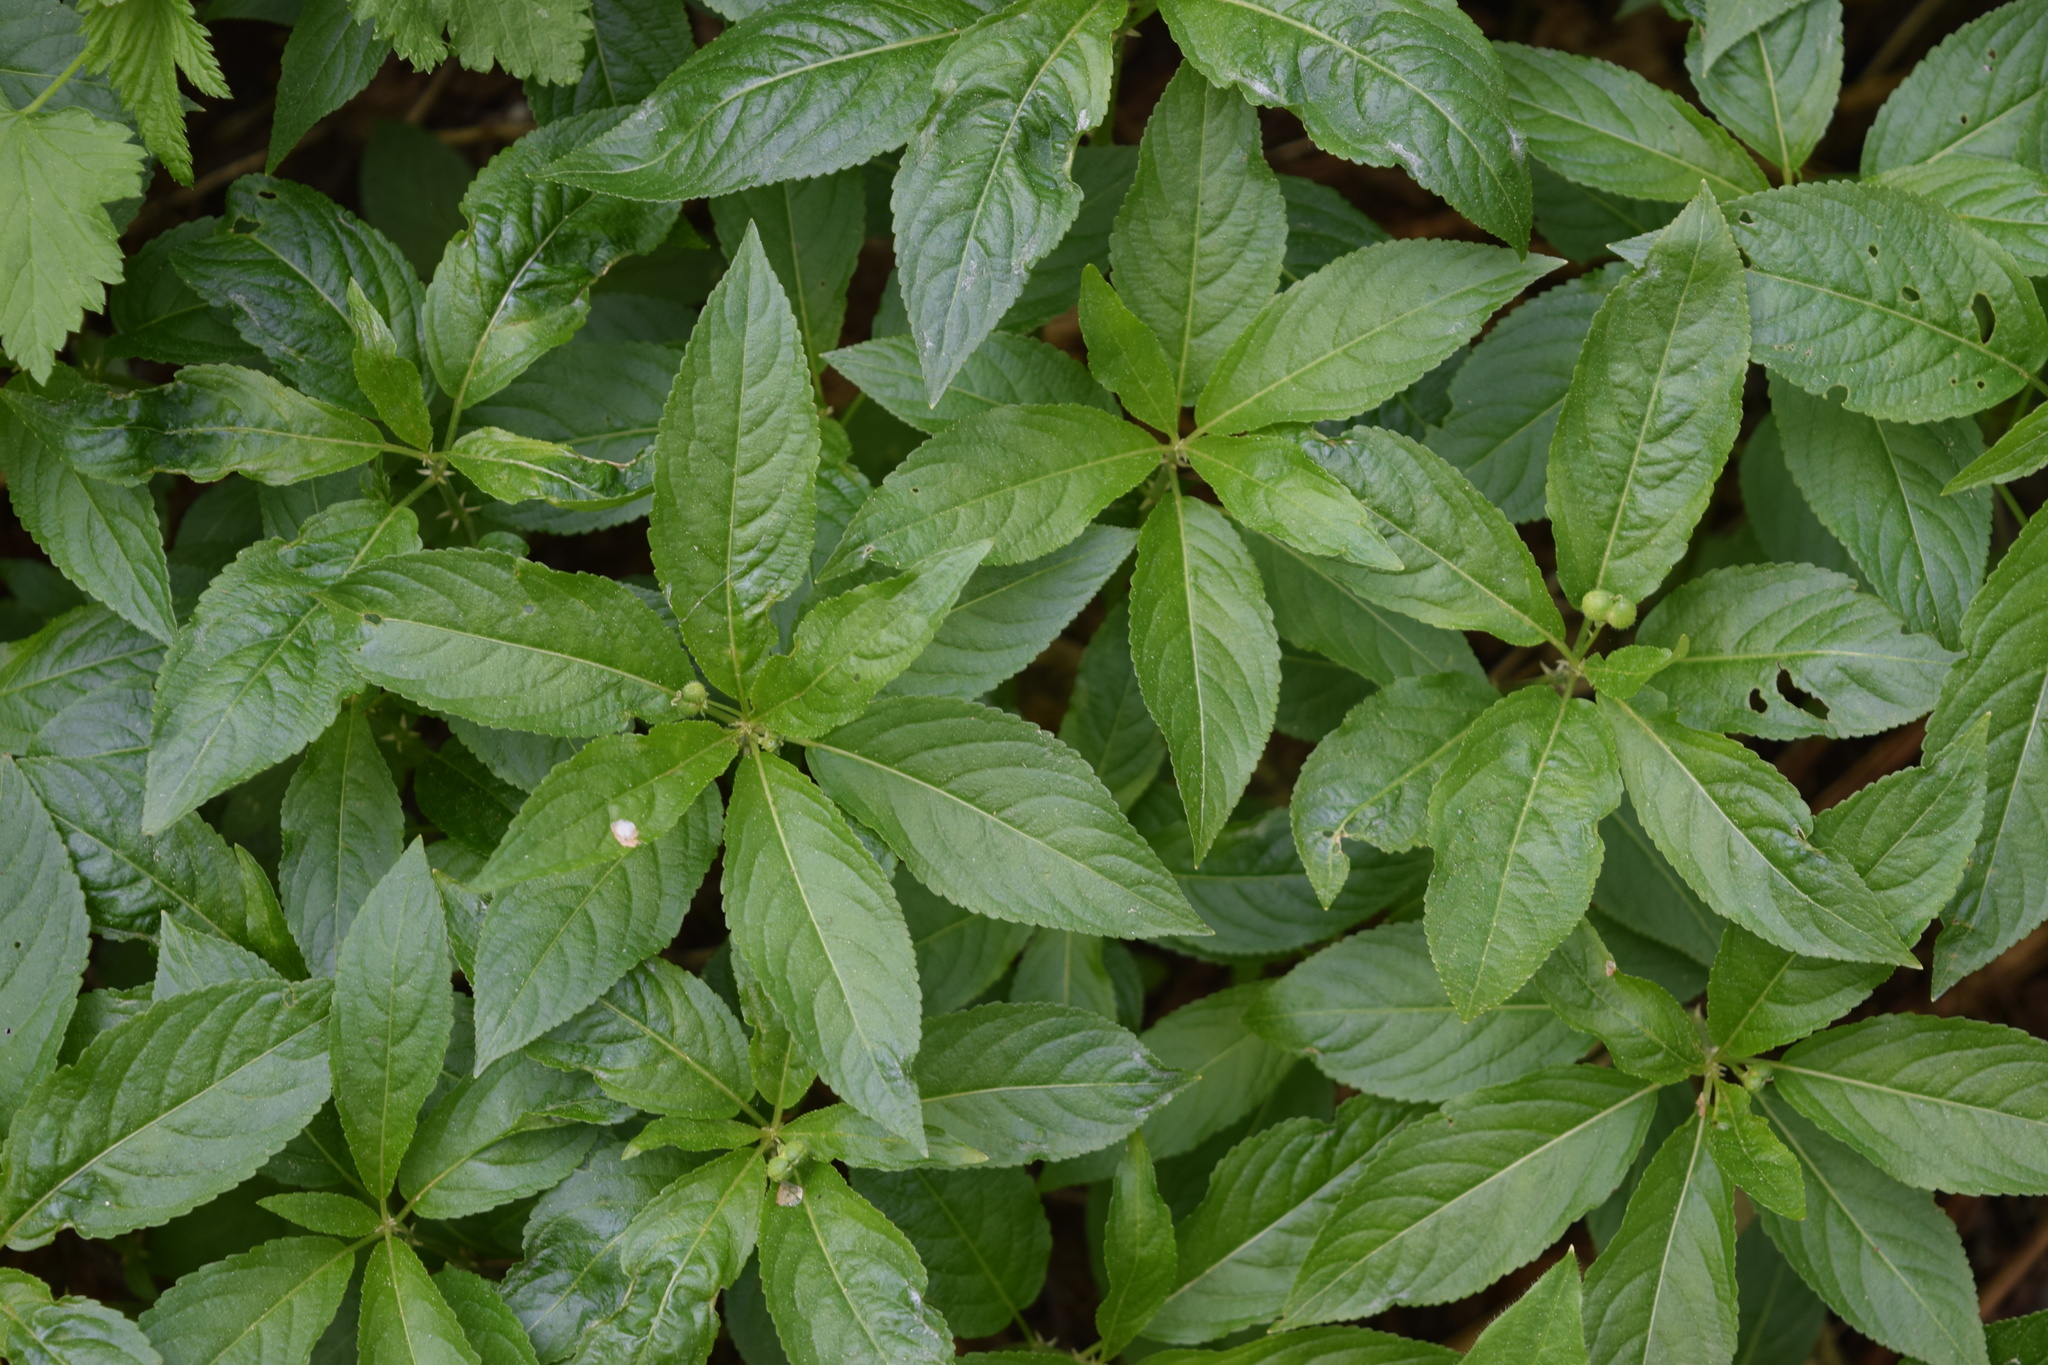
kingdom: Plantae
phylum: Tracheophyta
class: Magnoliopsida
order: Malpighiales
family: Euphorbiaceae
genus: Mercurialis
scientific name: Mercurialis perennis
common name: Dog mercury
